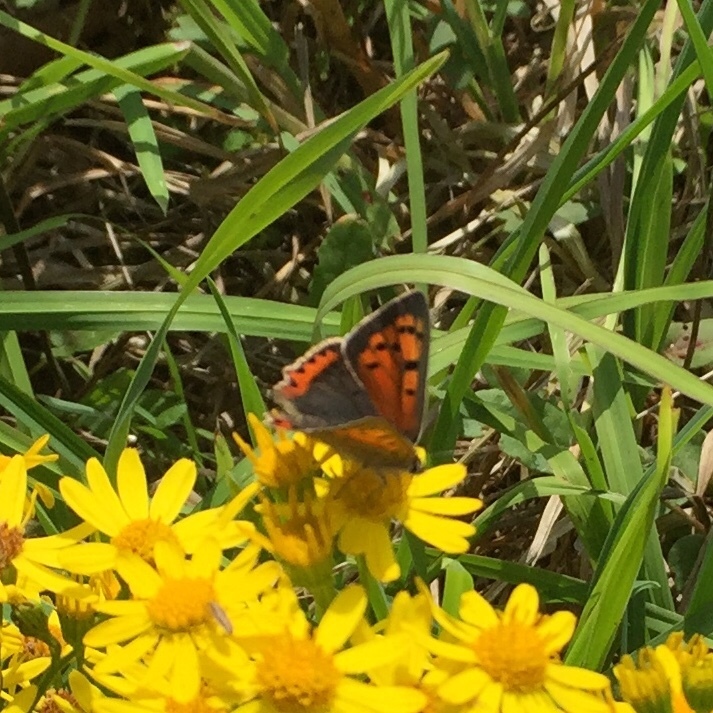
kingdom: Animalia
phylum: Arthropoda
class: Insecta
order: Lepidoptera
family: Lycaenidae
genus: Lycaena
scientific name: Lycaena phlaeas
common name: Small copper
